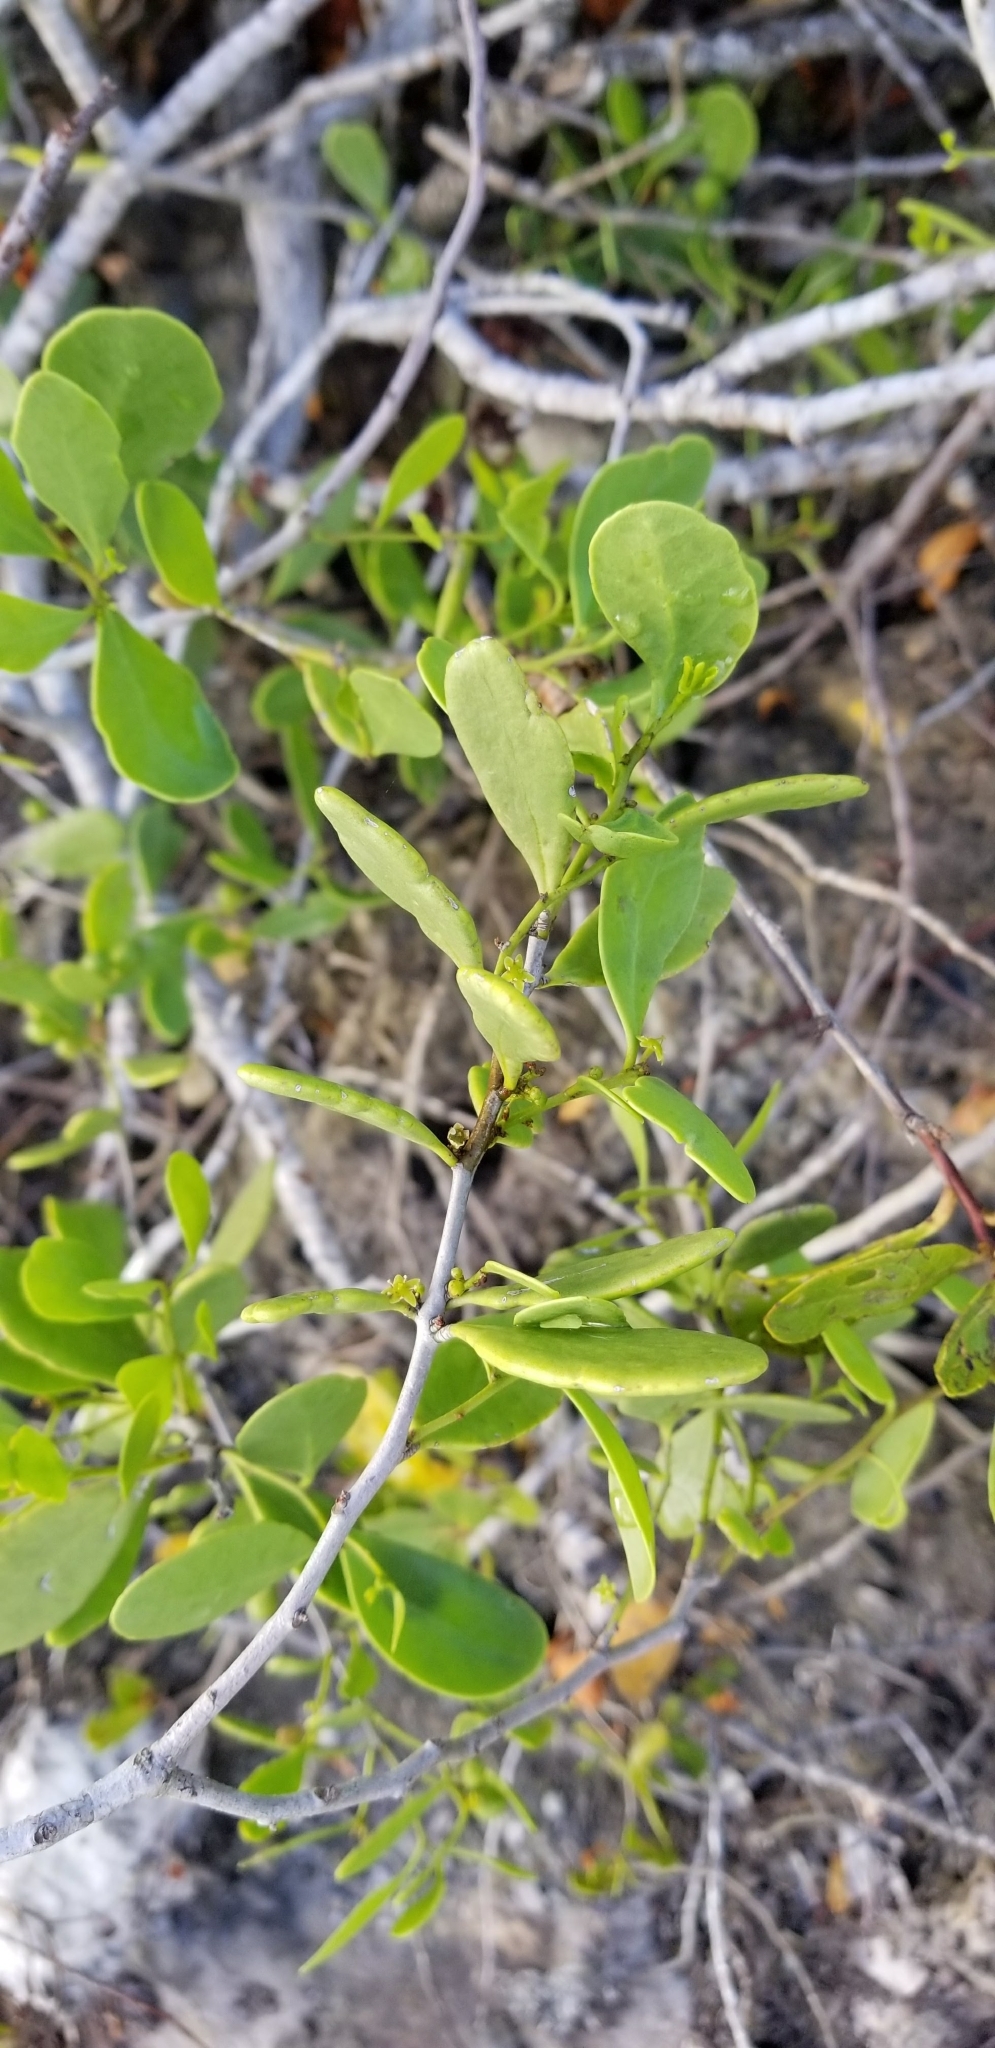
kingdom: Plantae
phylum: Tracheophyta
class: Magnoliopsida
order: Celastrales
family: Celastraceae
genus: Tricerma
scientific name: Tricerma phyllanthoides
